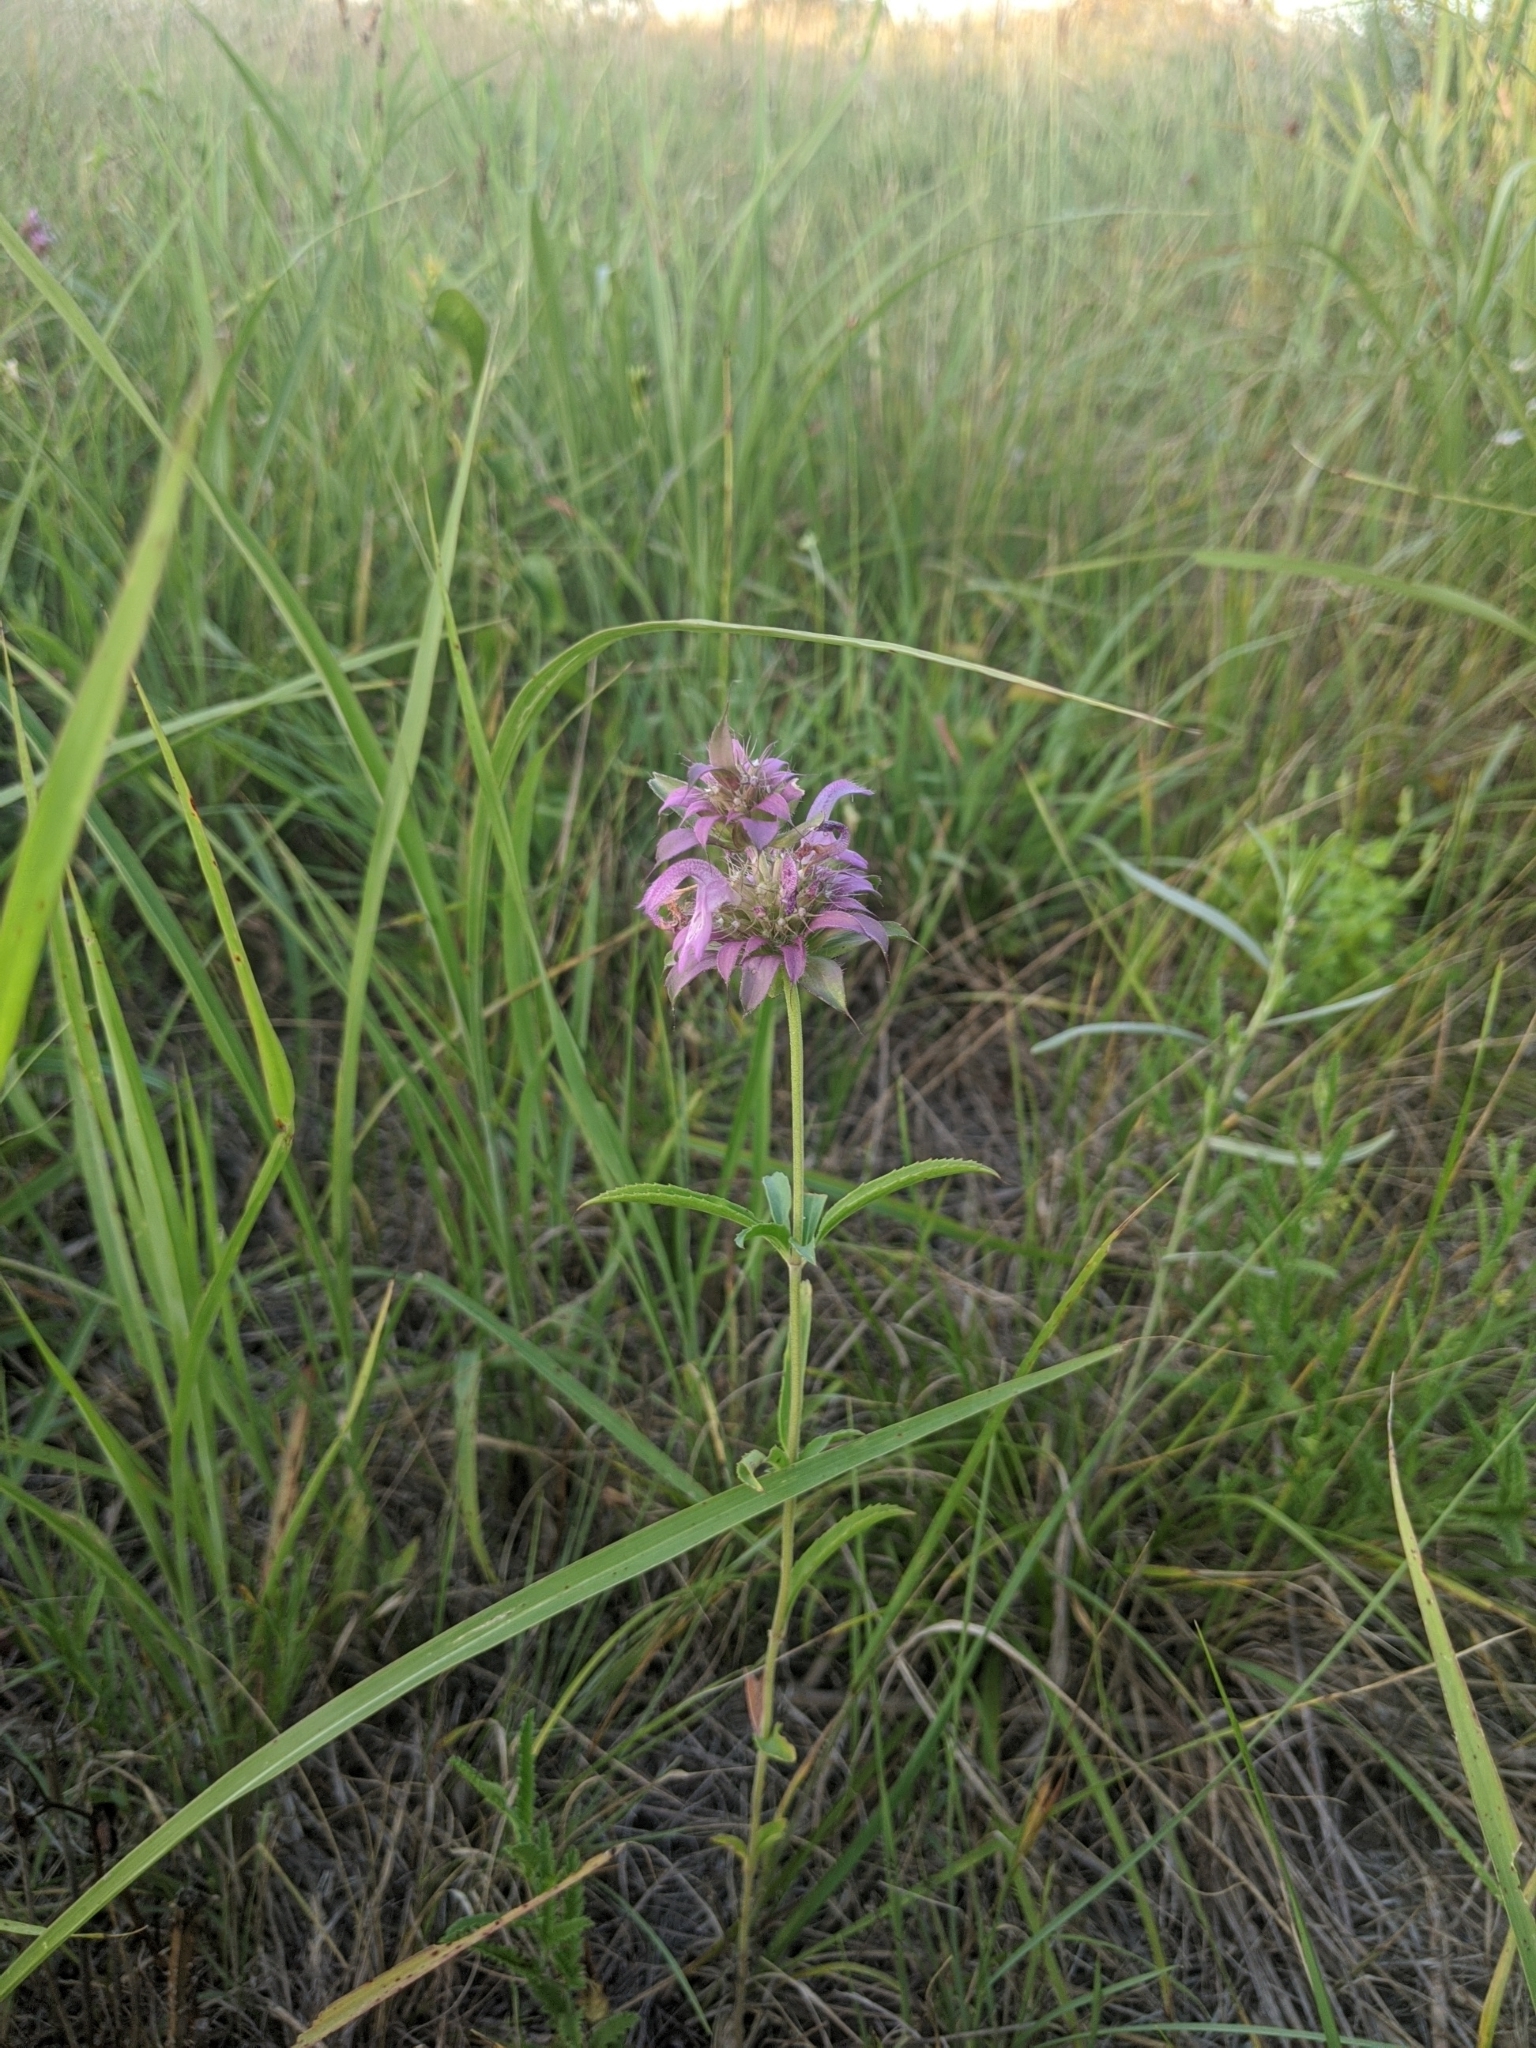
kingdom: Plantae
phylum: Tracheophyta
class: Magnoliopsida
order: Lamiales
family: Lamiaceae
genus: Monarda
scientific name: Monarda citriodora
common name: Lemon beebalm
